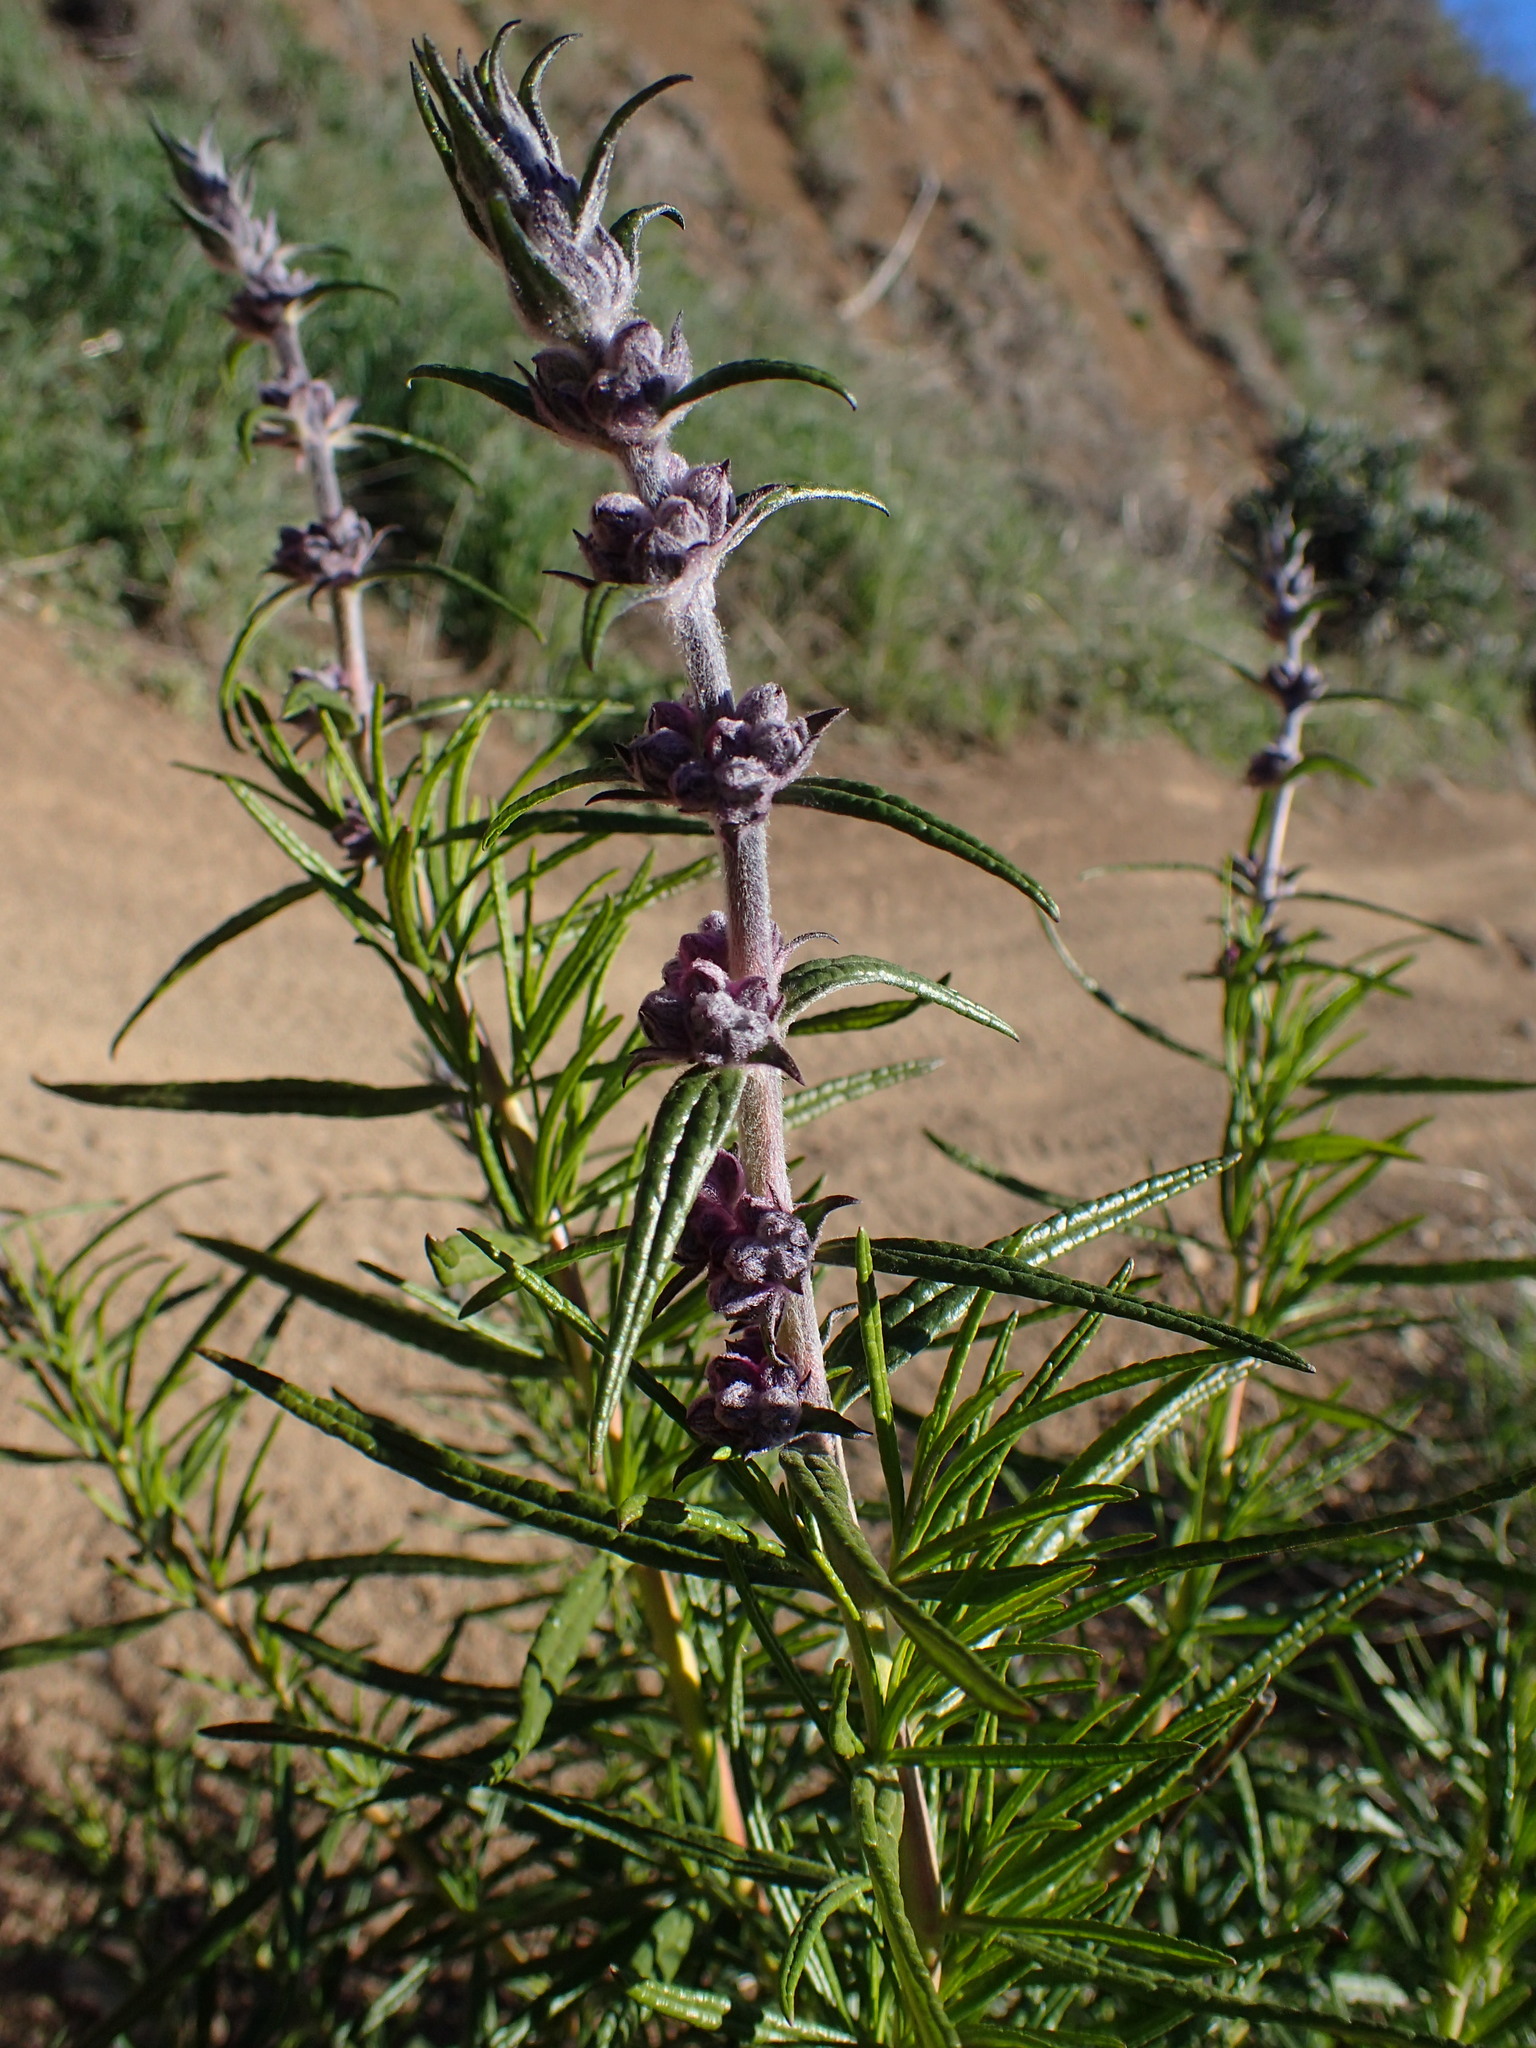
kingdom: Plantae
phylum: Tracheophyta
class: Magnoliopsida
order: Lamiales
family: Lamiaceae
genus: Trichostema
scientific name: Trichostema lanatum
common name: Woolly bluecurls
